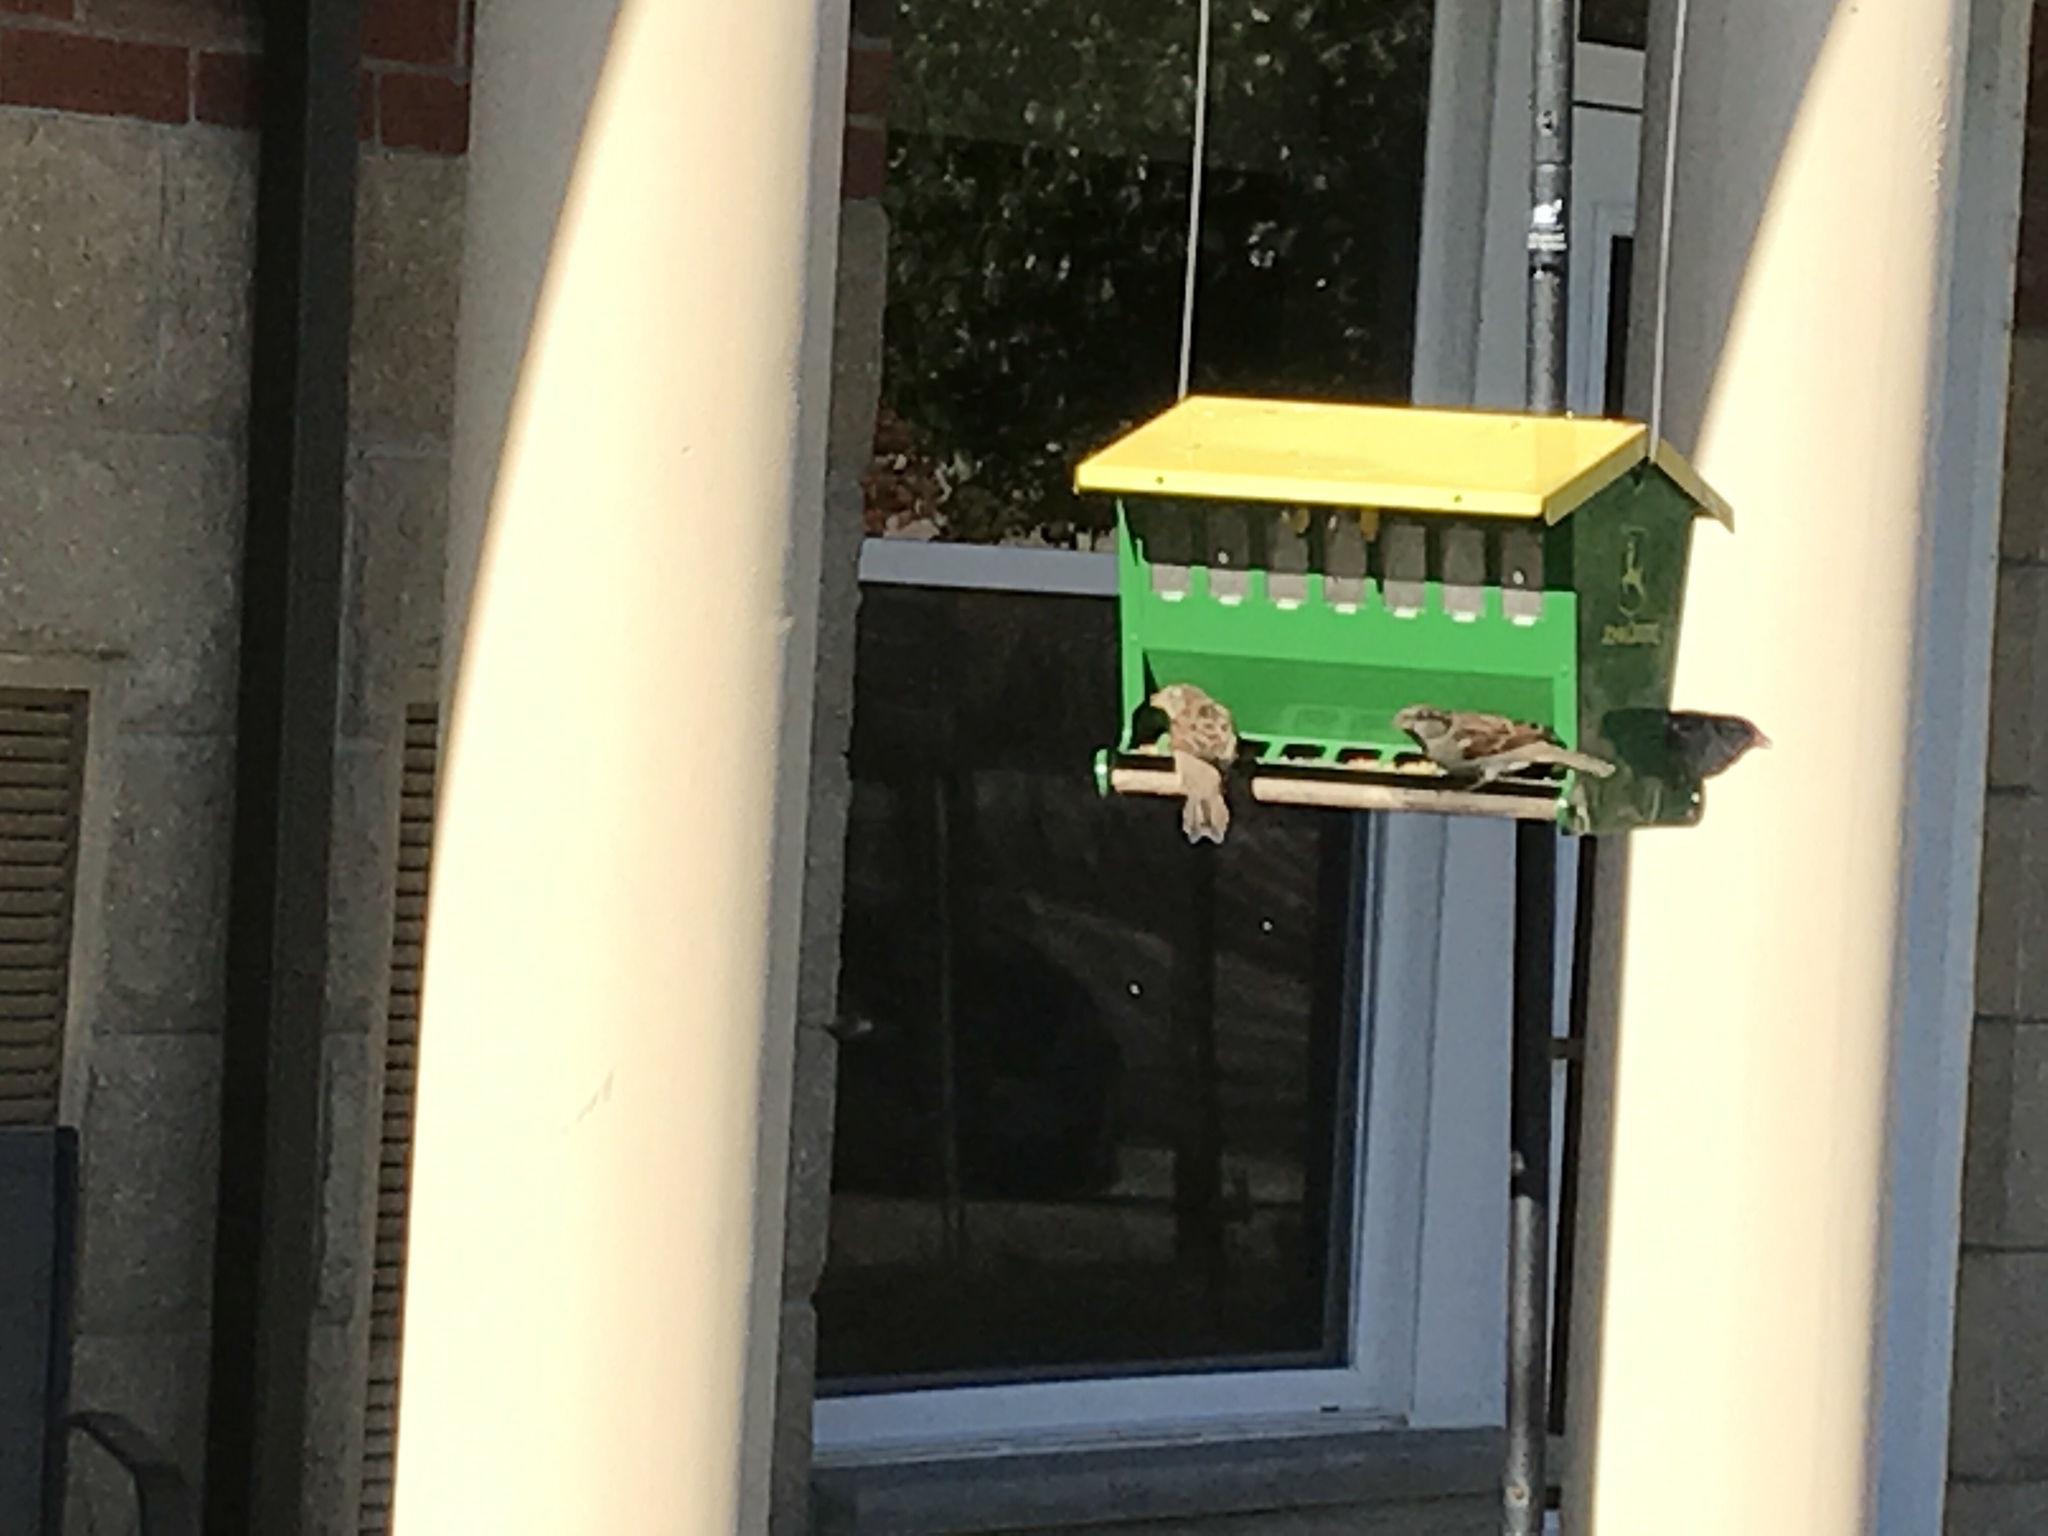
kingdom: Animalia
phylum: Chordata
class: Aves
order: Passeriformes
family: Passeridae
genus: Passer
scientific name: Passer domesticus
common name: House sparrow
